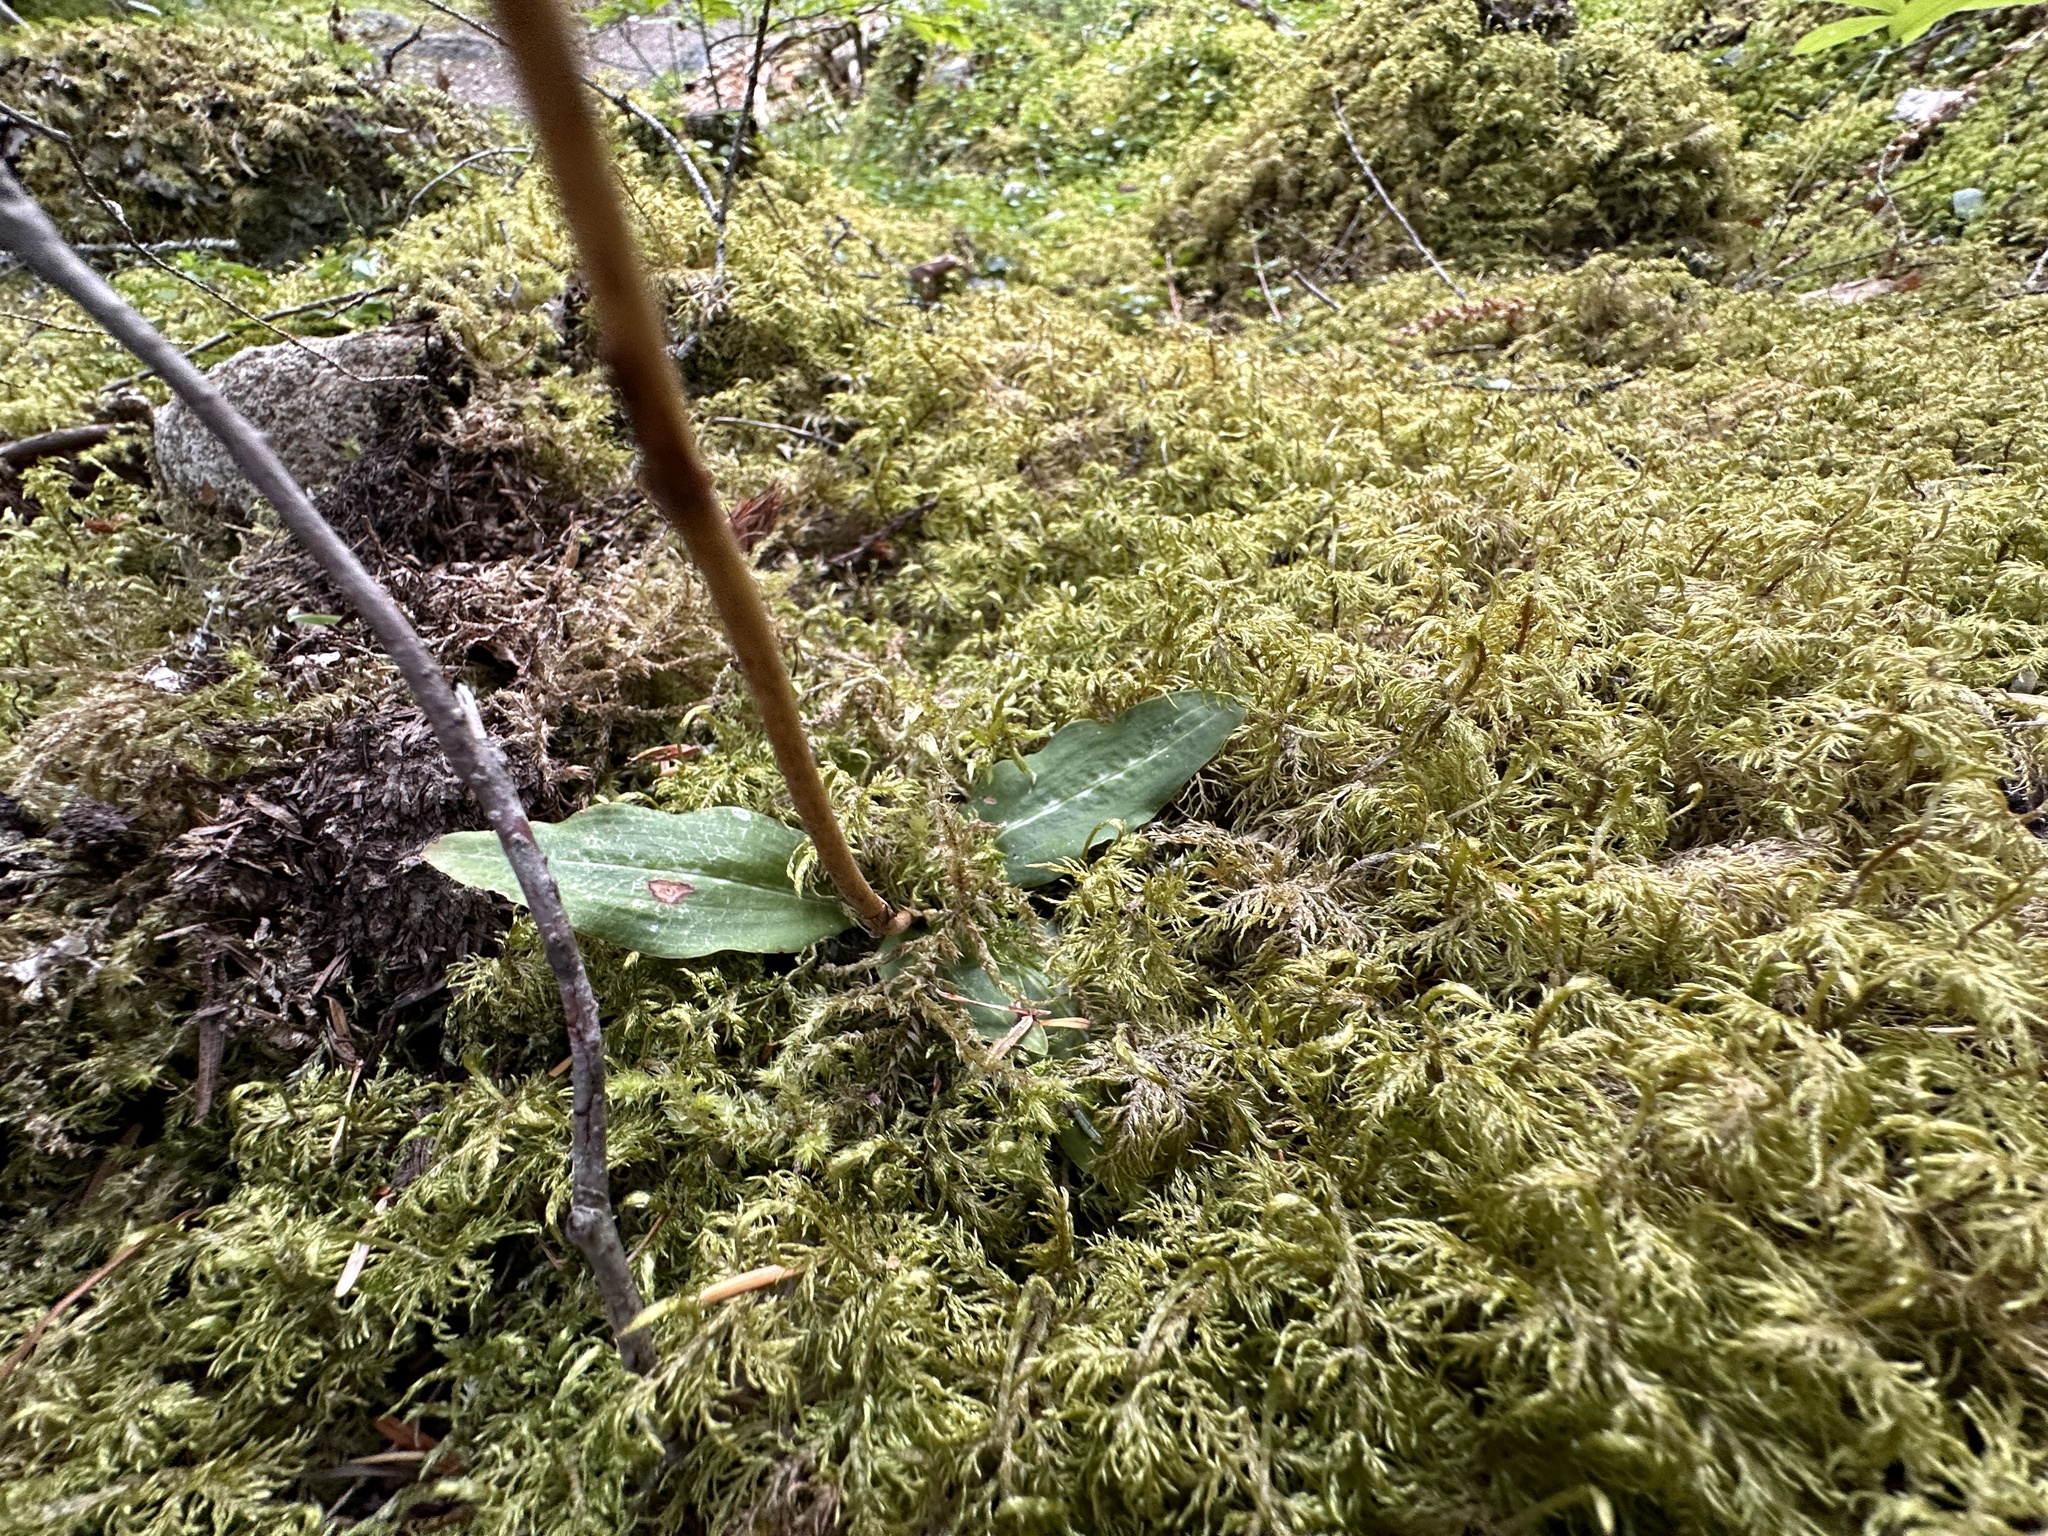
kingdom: Plantae
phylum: Tracheophyta
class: Liliopsida
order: Asparagales
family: Orchidaceae
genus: Goodyera
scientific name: Goodyera oblongifolia
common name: Giant rattlesnake-plantain
